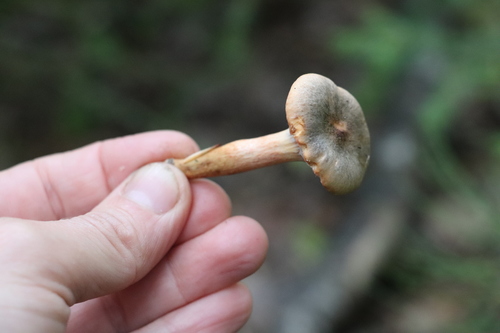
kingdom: Fungi
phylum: Basidiomycota
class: Agaricomycetes
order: Boletales
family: Gomphidiaceae
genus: Chroogomphus
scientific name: Chroogomphus rutilus
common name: Copper spike
